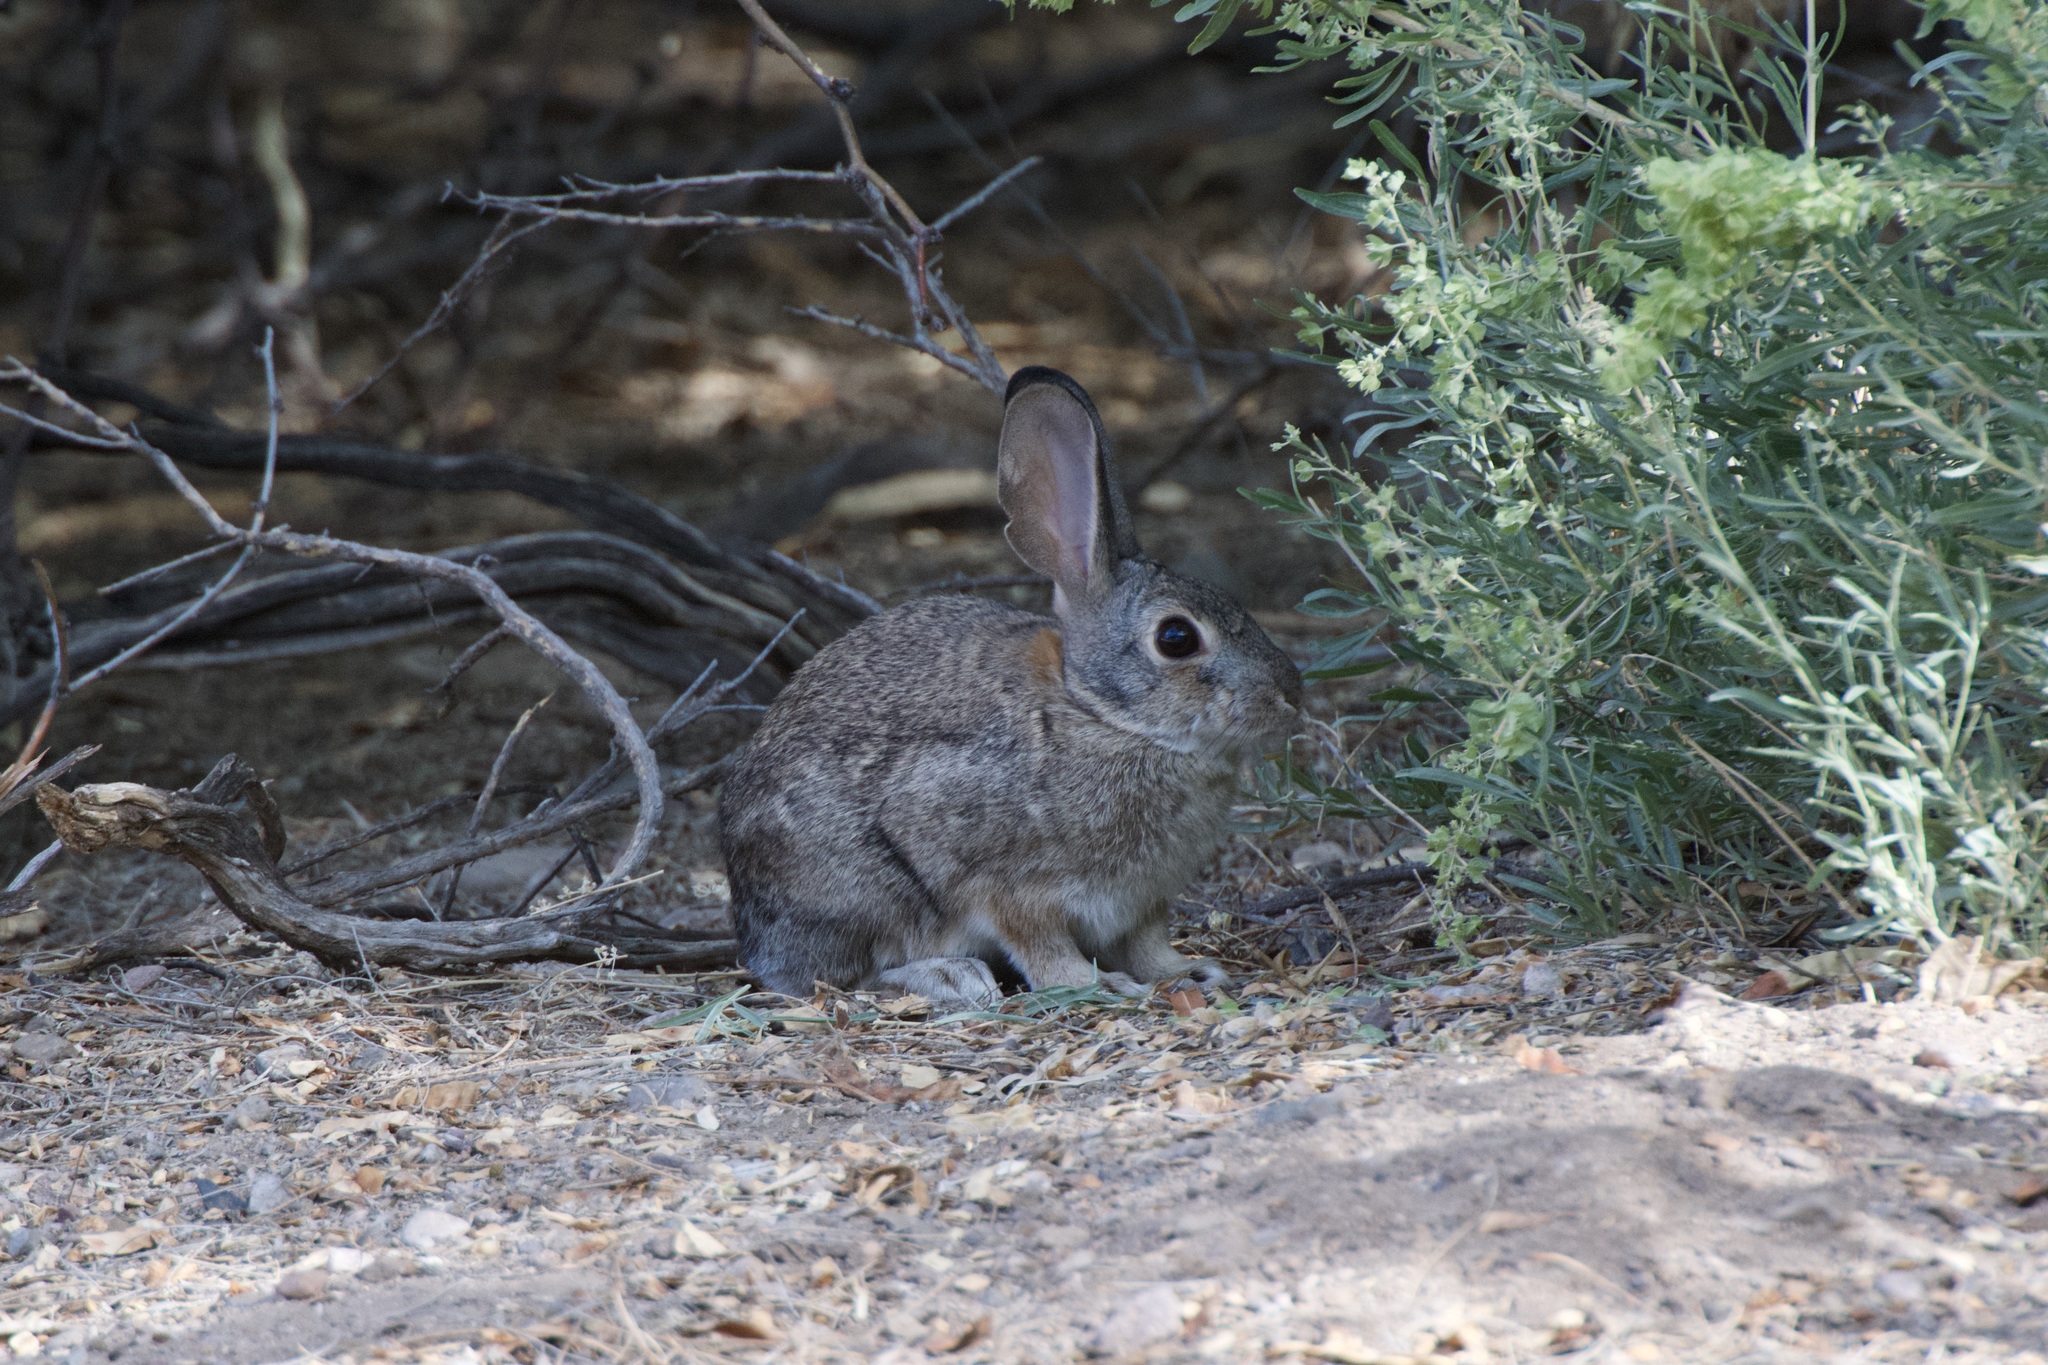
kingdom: Animalia
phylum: Chordata
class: Mammalia
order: Lagomorpha
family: Leporidae
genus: Sylvilagus
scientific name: Sylvilagus audubonii
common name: Desert cottontail
